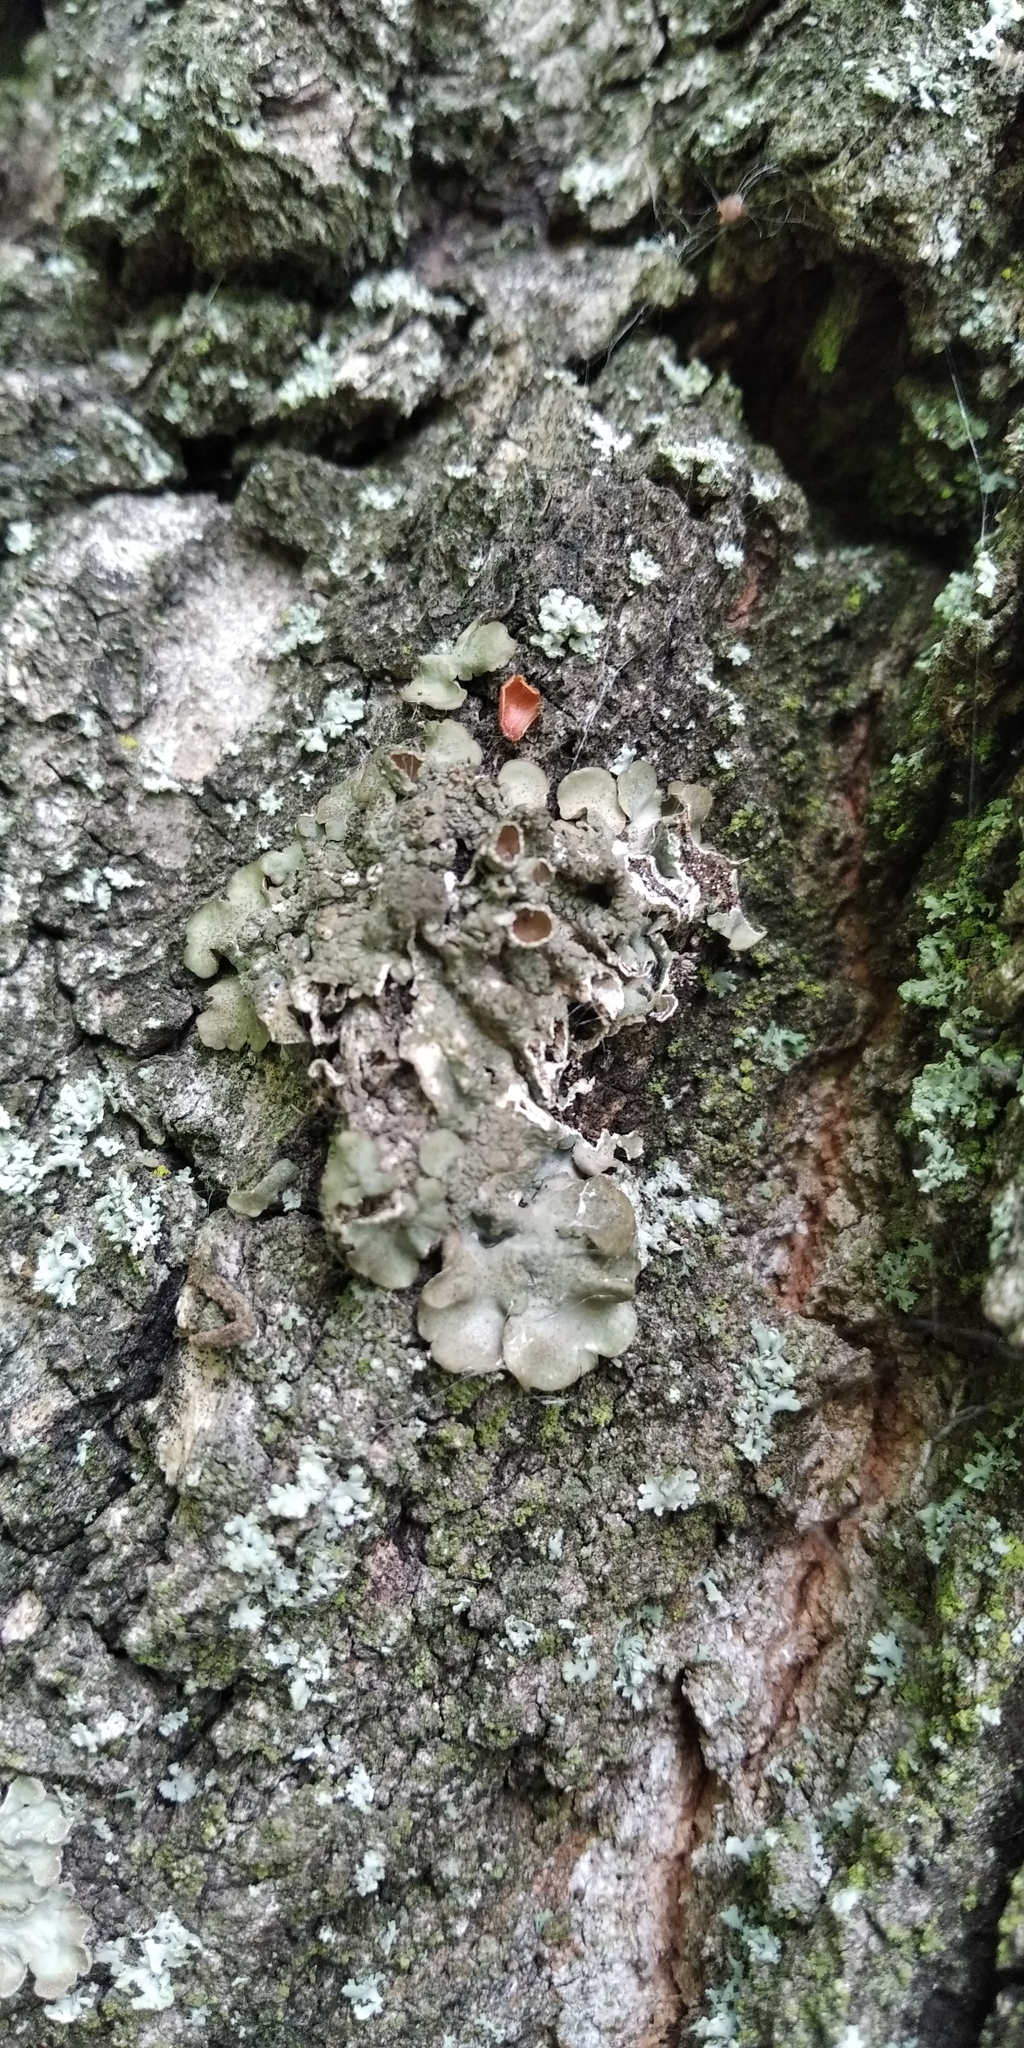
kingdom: Fungi
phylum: Ascomycota
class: Lecanoromycetes
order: Lecanorales
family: Parmeliaceae
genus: Pleurosticta
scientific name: Pleurosticta acetabulum
